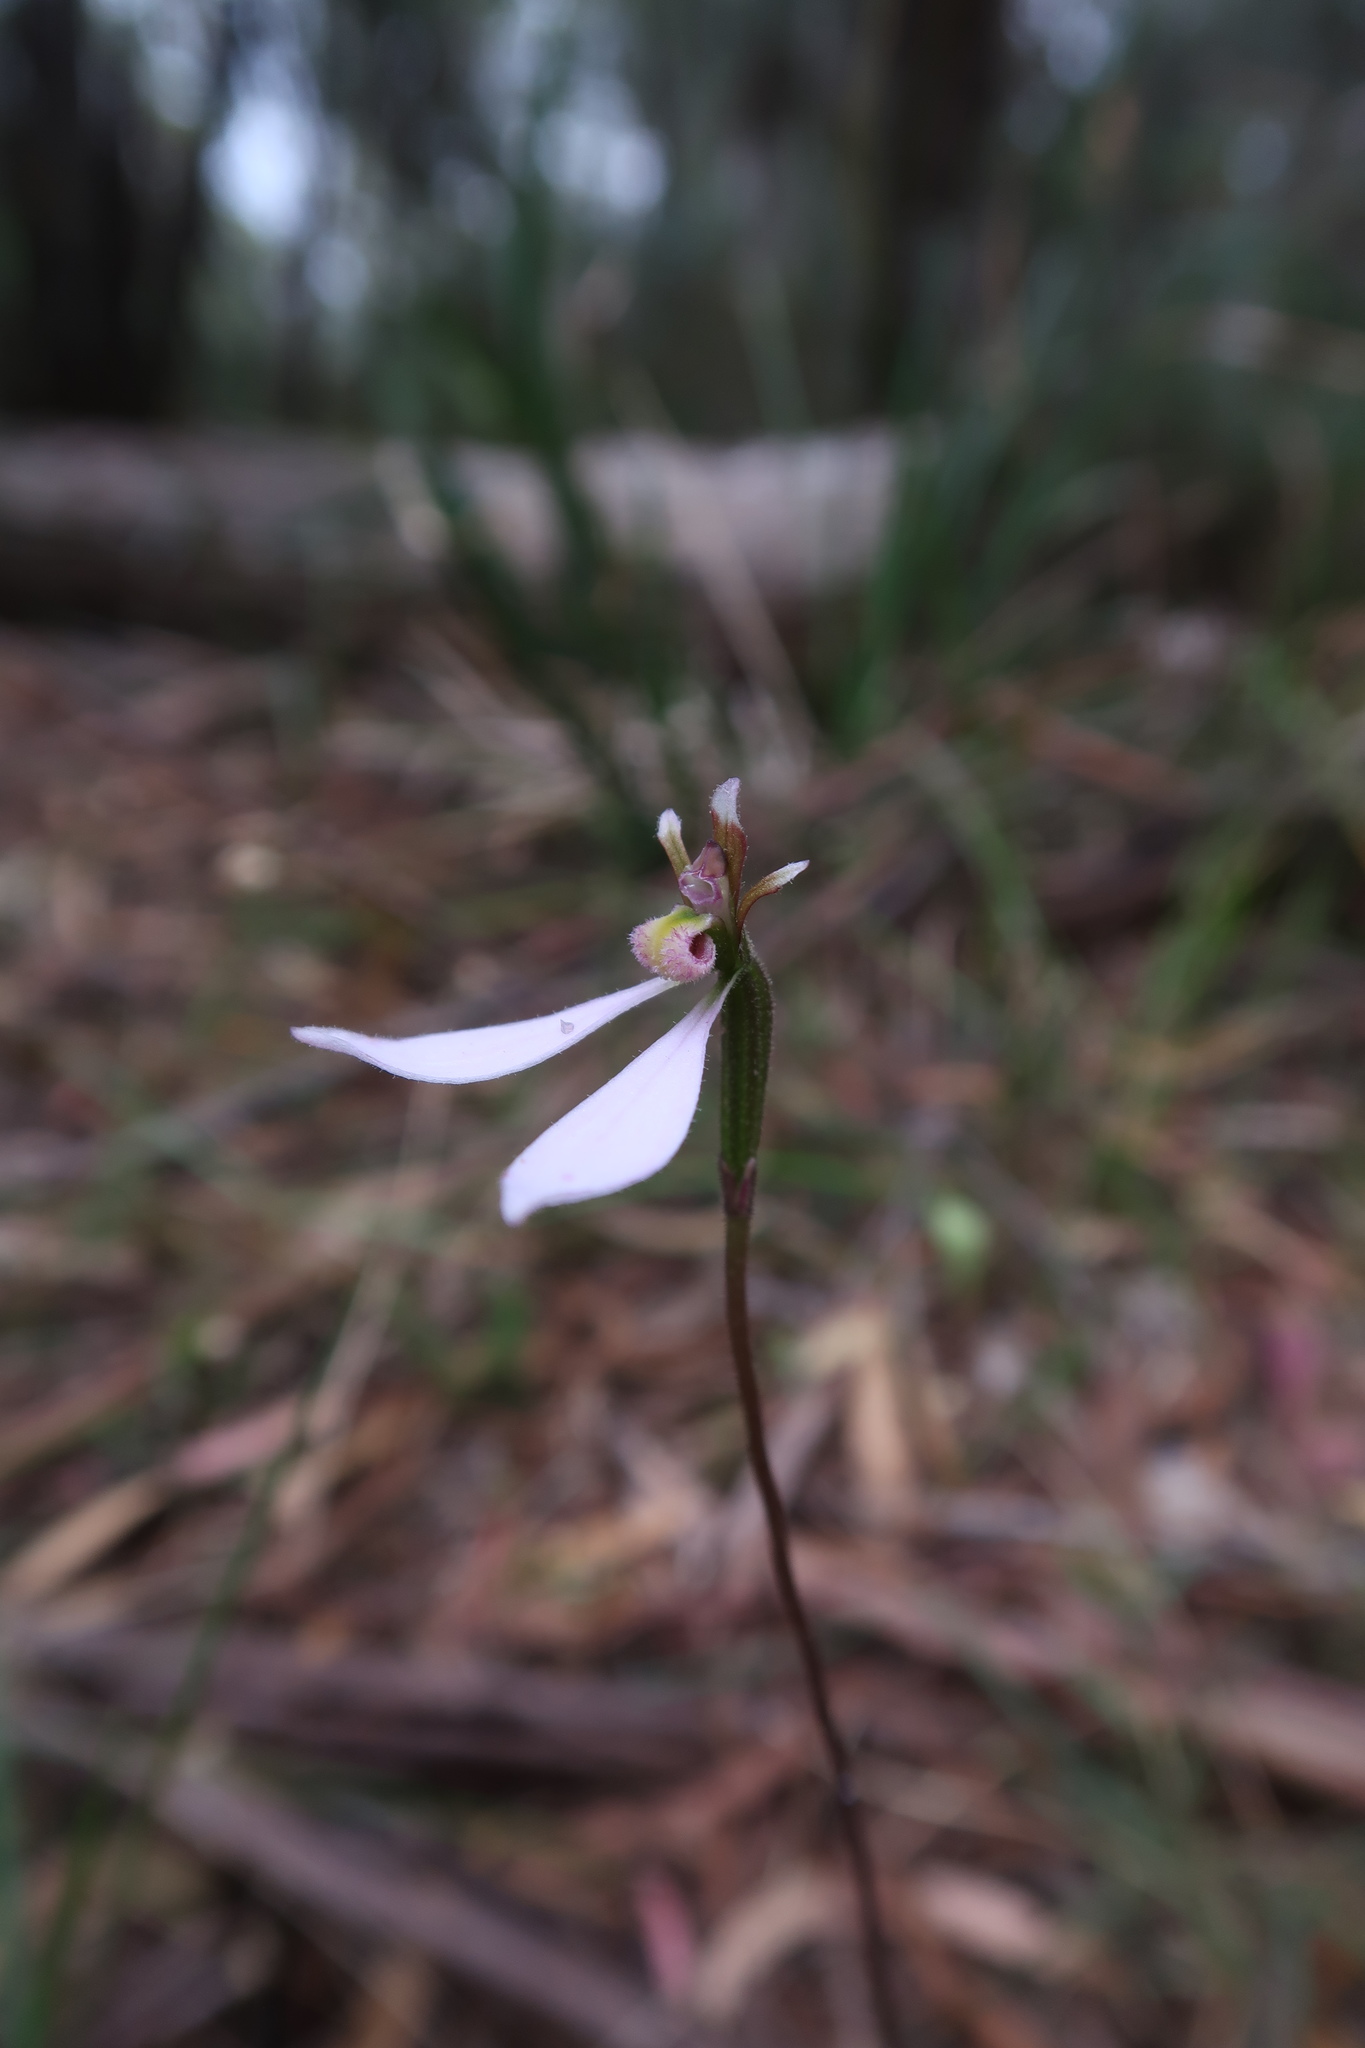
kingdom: Plantae
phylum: Tracheophyta
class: Liliopsida
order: Asparagales
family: Orchidaceae
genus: Eriochilus
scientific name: Eriochilus cucullatus
